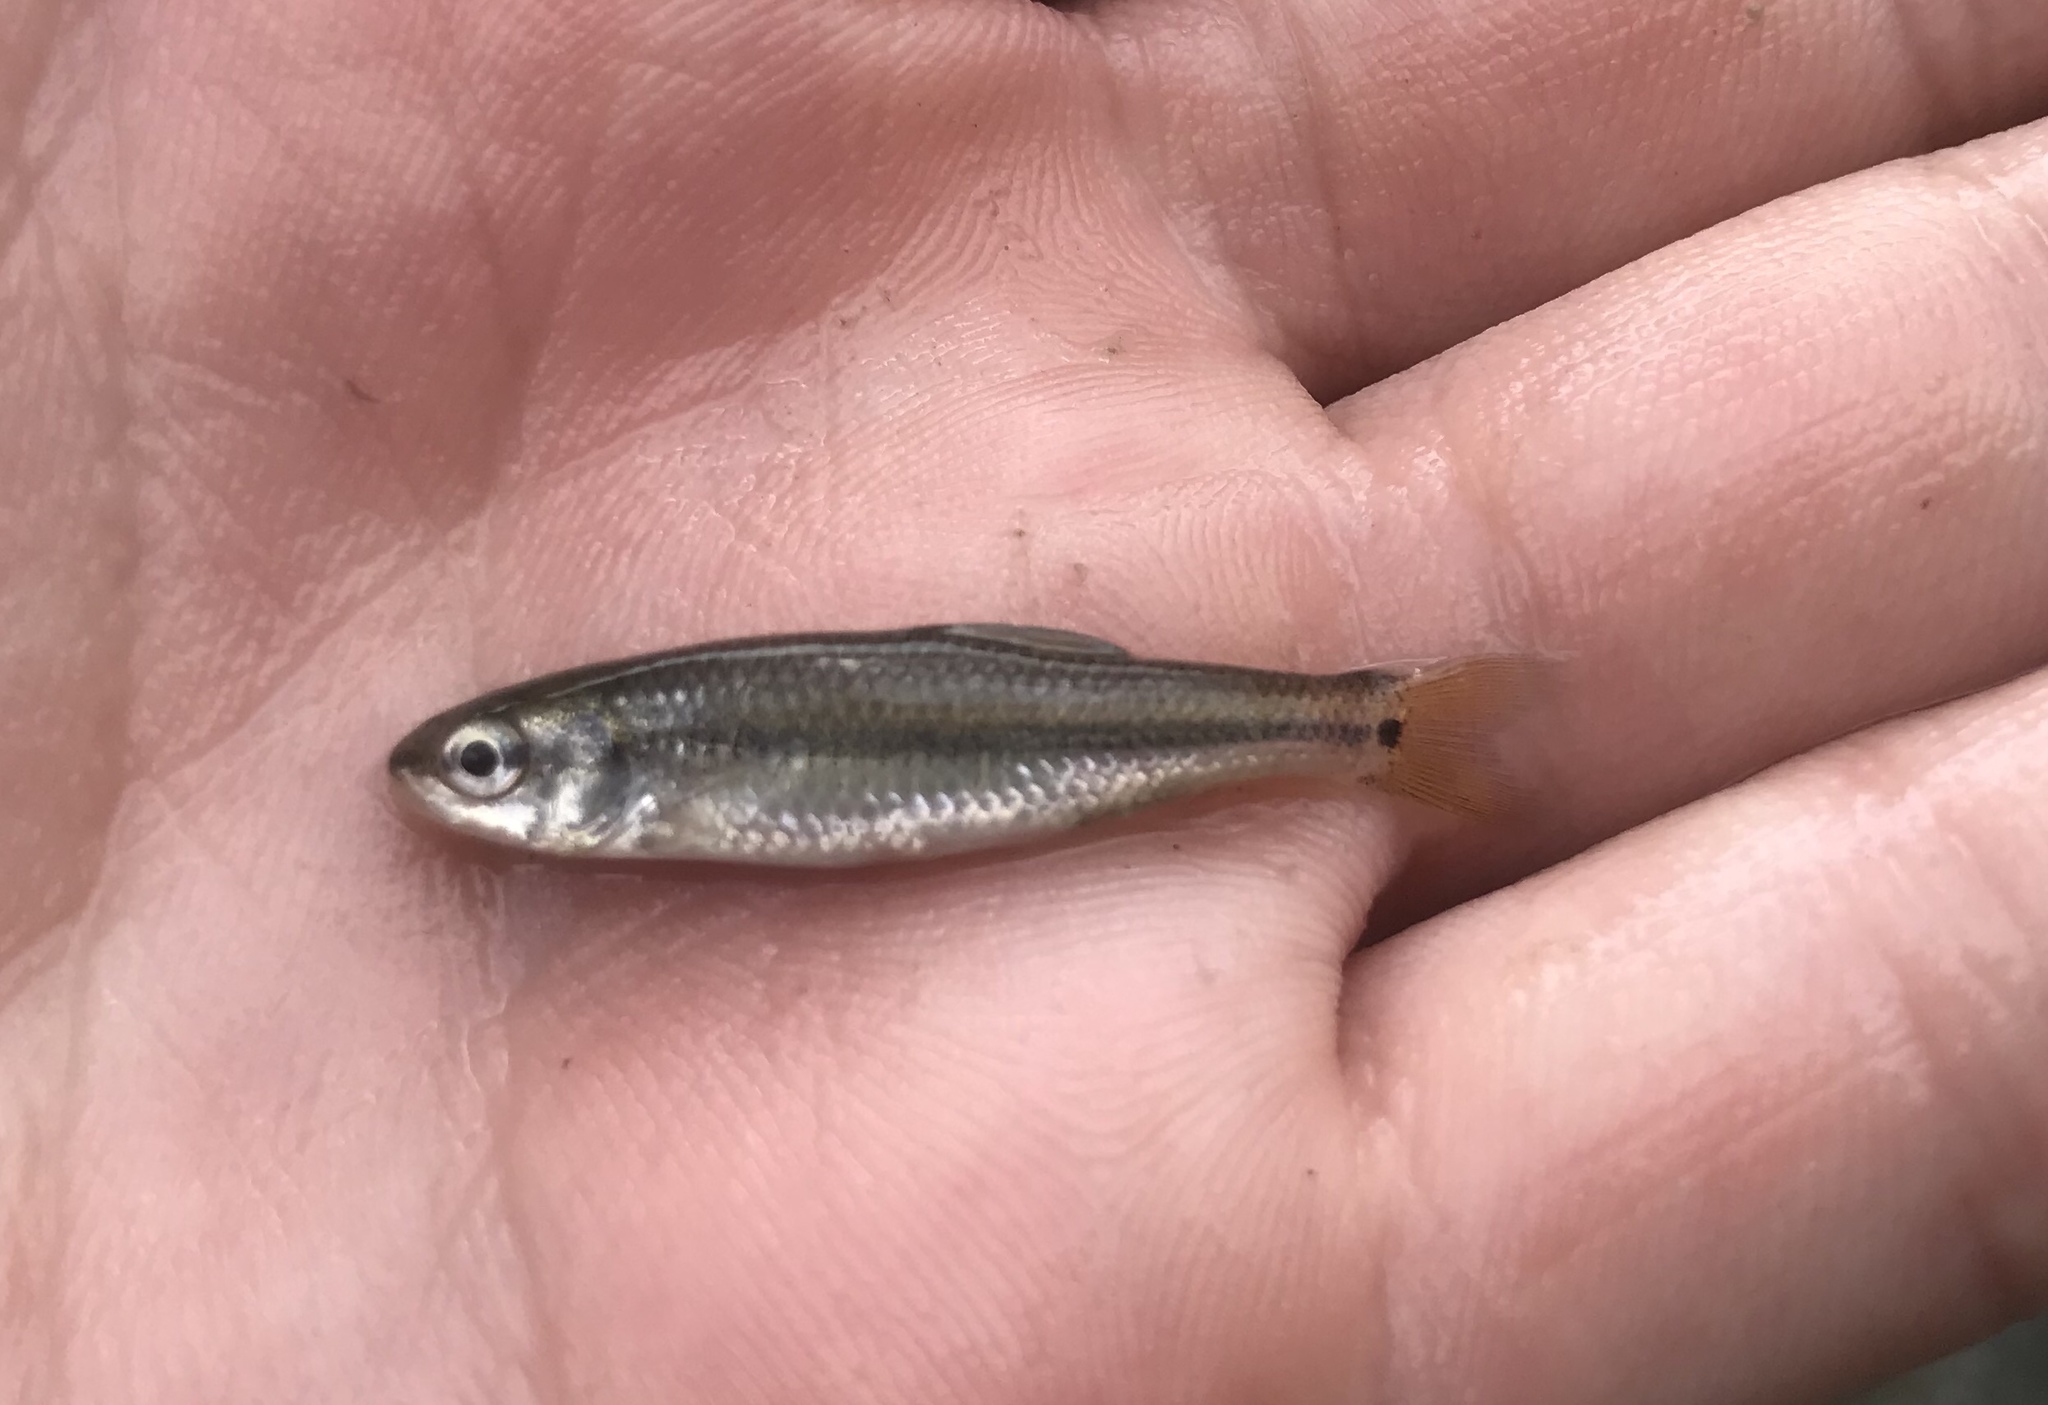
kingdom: Animalia
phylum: Chordata
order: Cypriniformes
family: Cyprinidae
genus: Dionda
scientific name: Dionda flavipinnis
